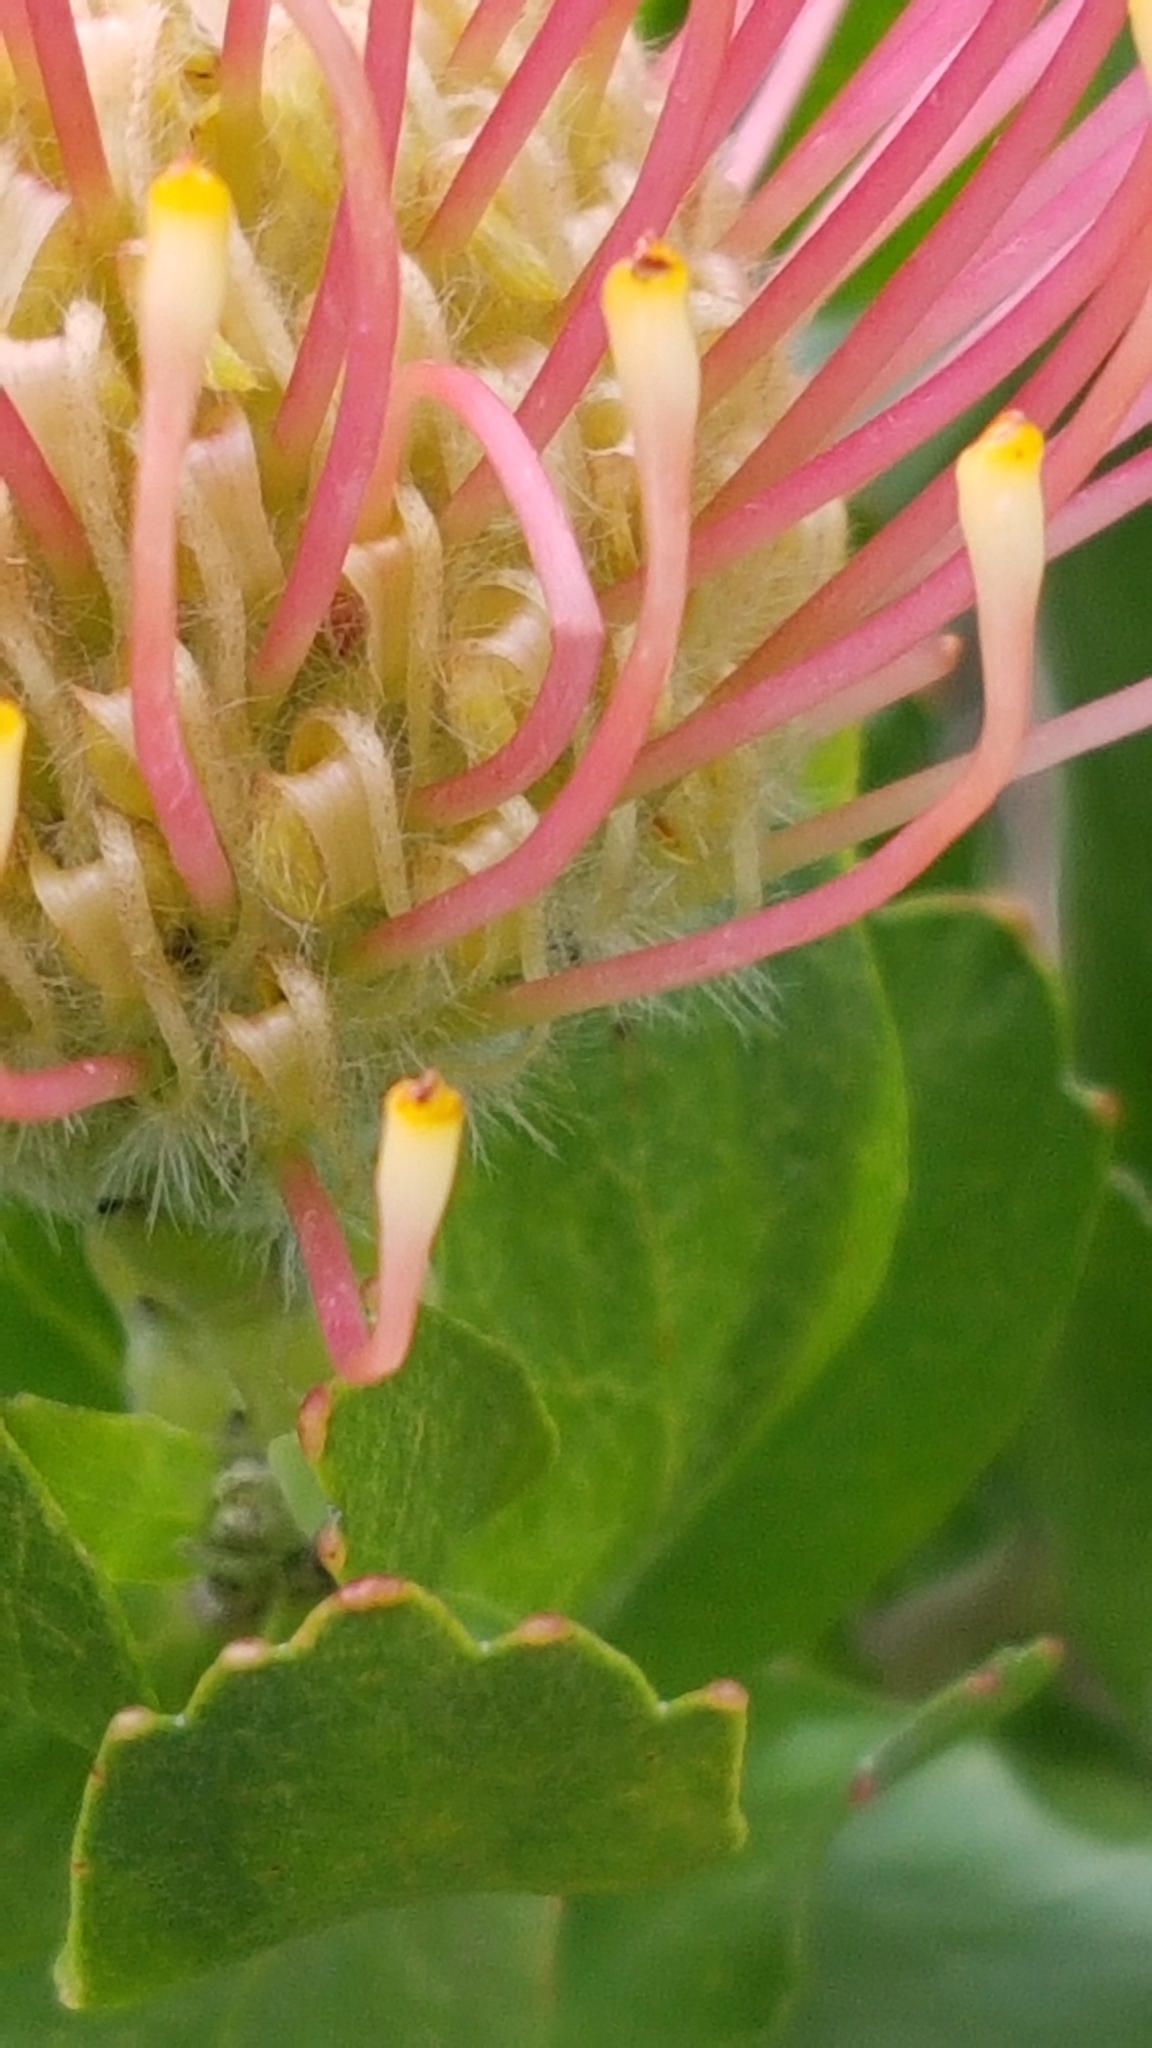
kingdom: Plantae
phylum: Tracheophyta
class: Magnoliopsida
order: Proteales
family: Proteaceae
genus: Leucospermum
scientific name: Leucospermum patersonii
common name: False tree pincushion
